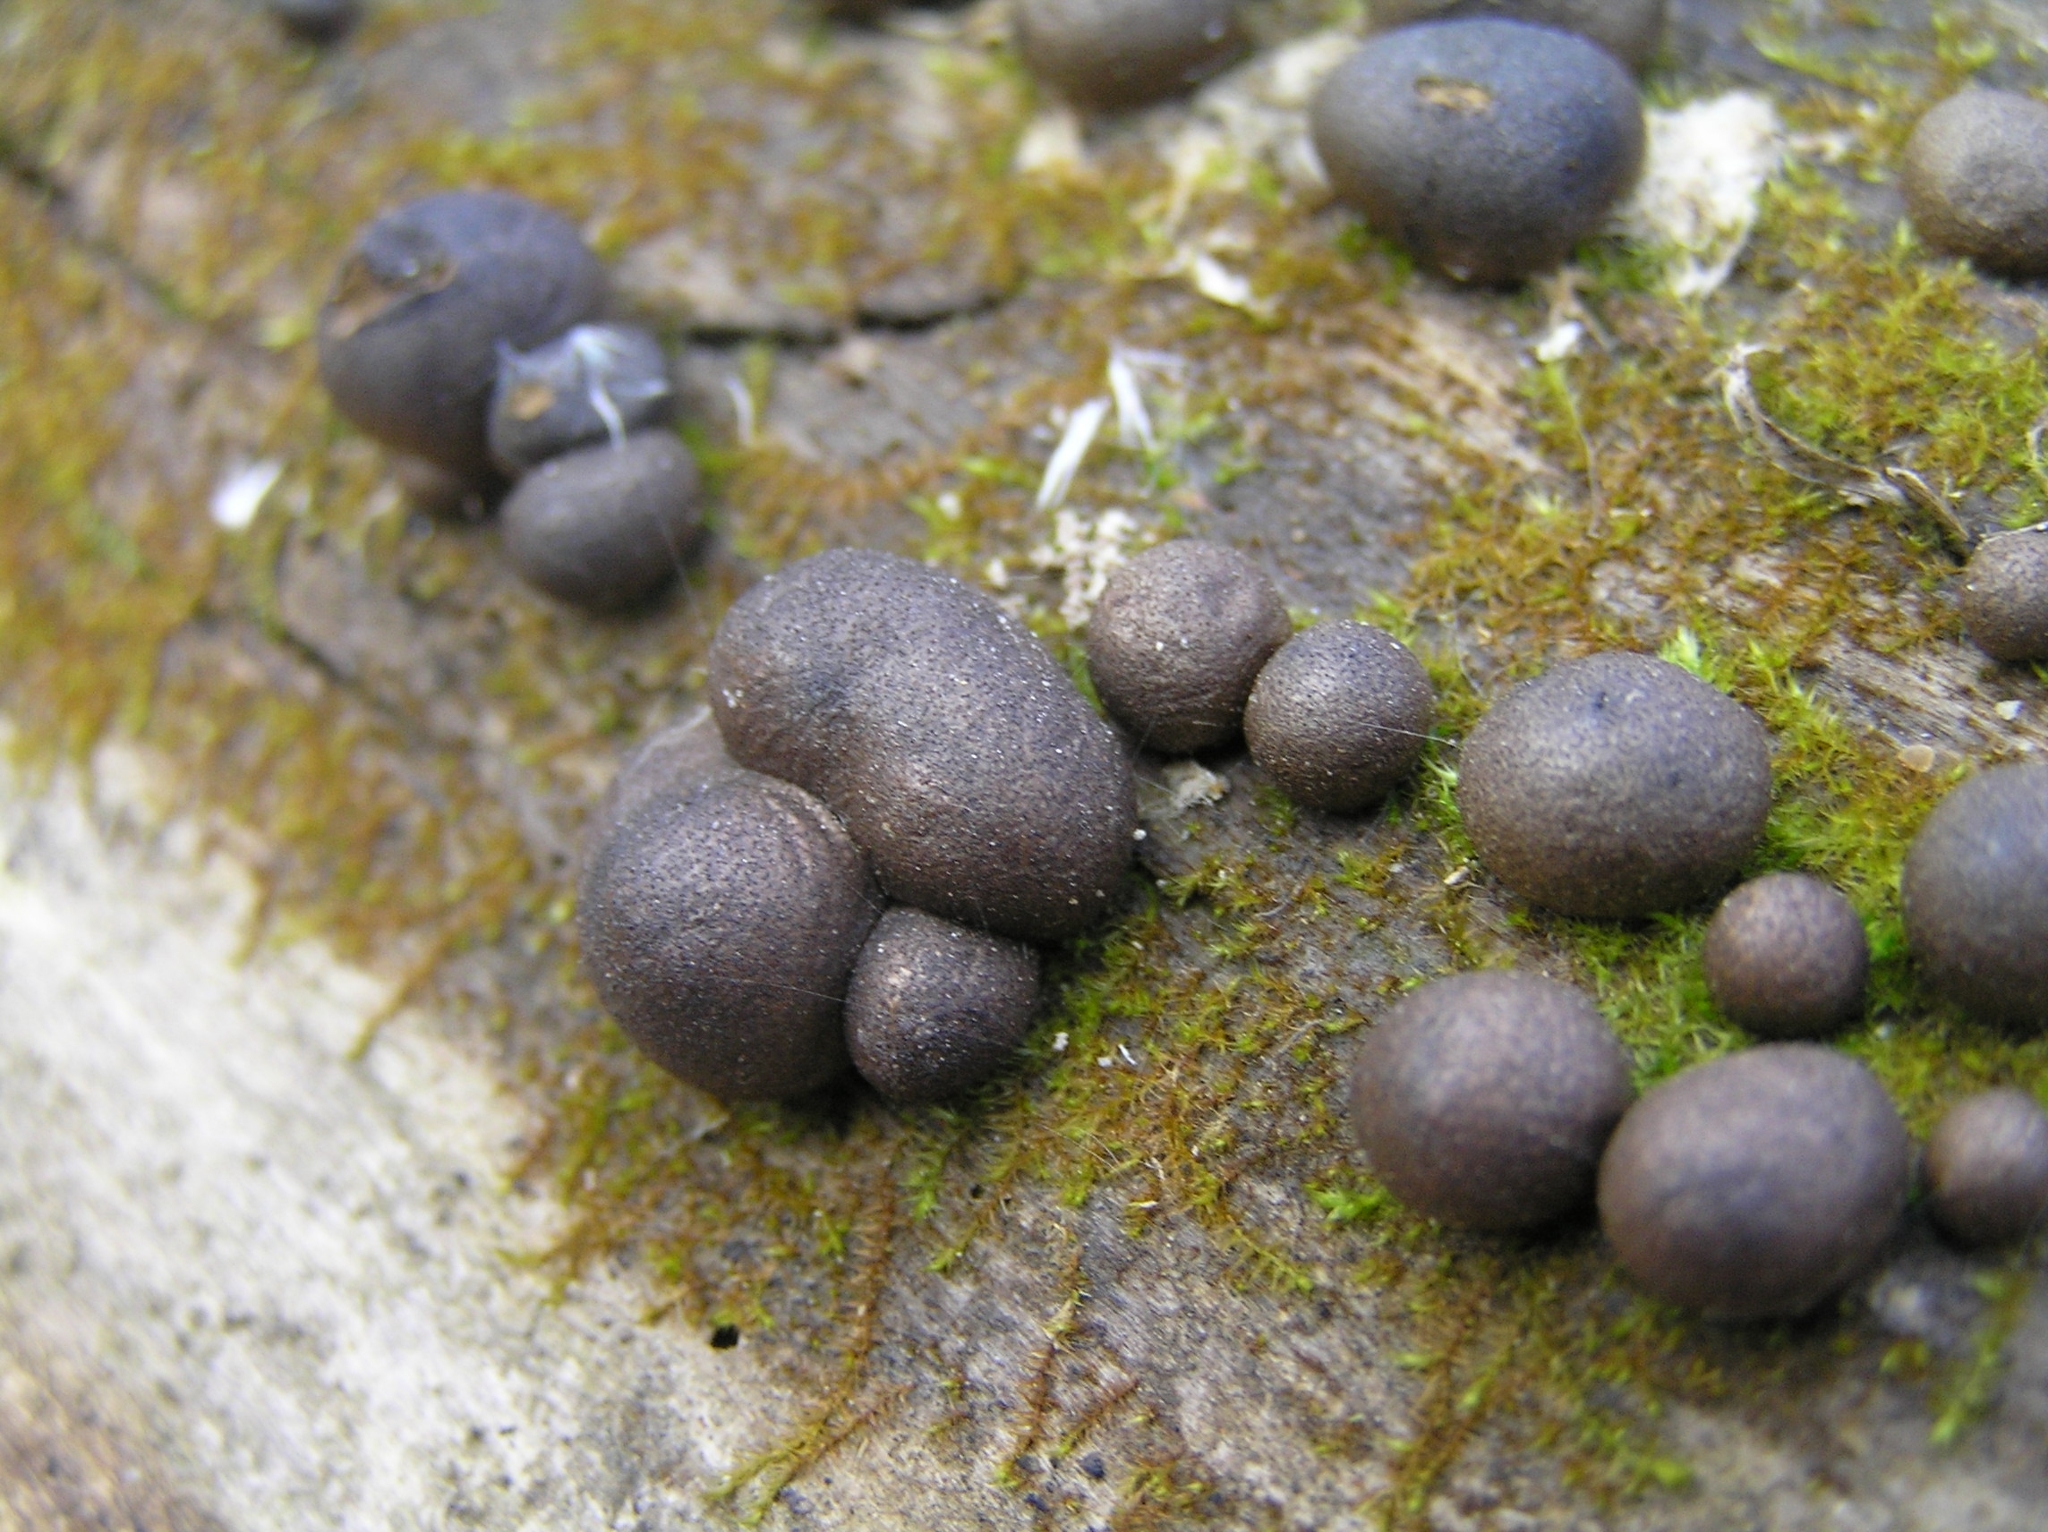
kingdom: Protozoa
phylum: Mycetozoa
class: Myxomycetes
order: Cribrariales
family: Tubiferaceae
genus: Lycogala
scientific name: Lycogala epidendrum
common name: Wolf's milk
